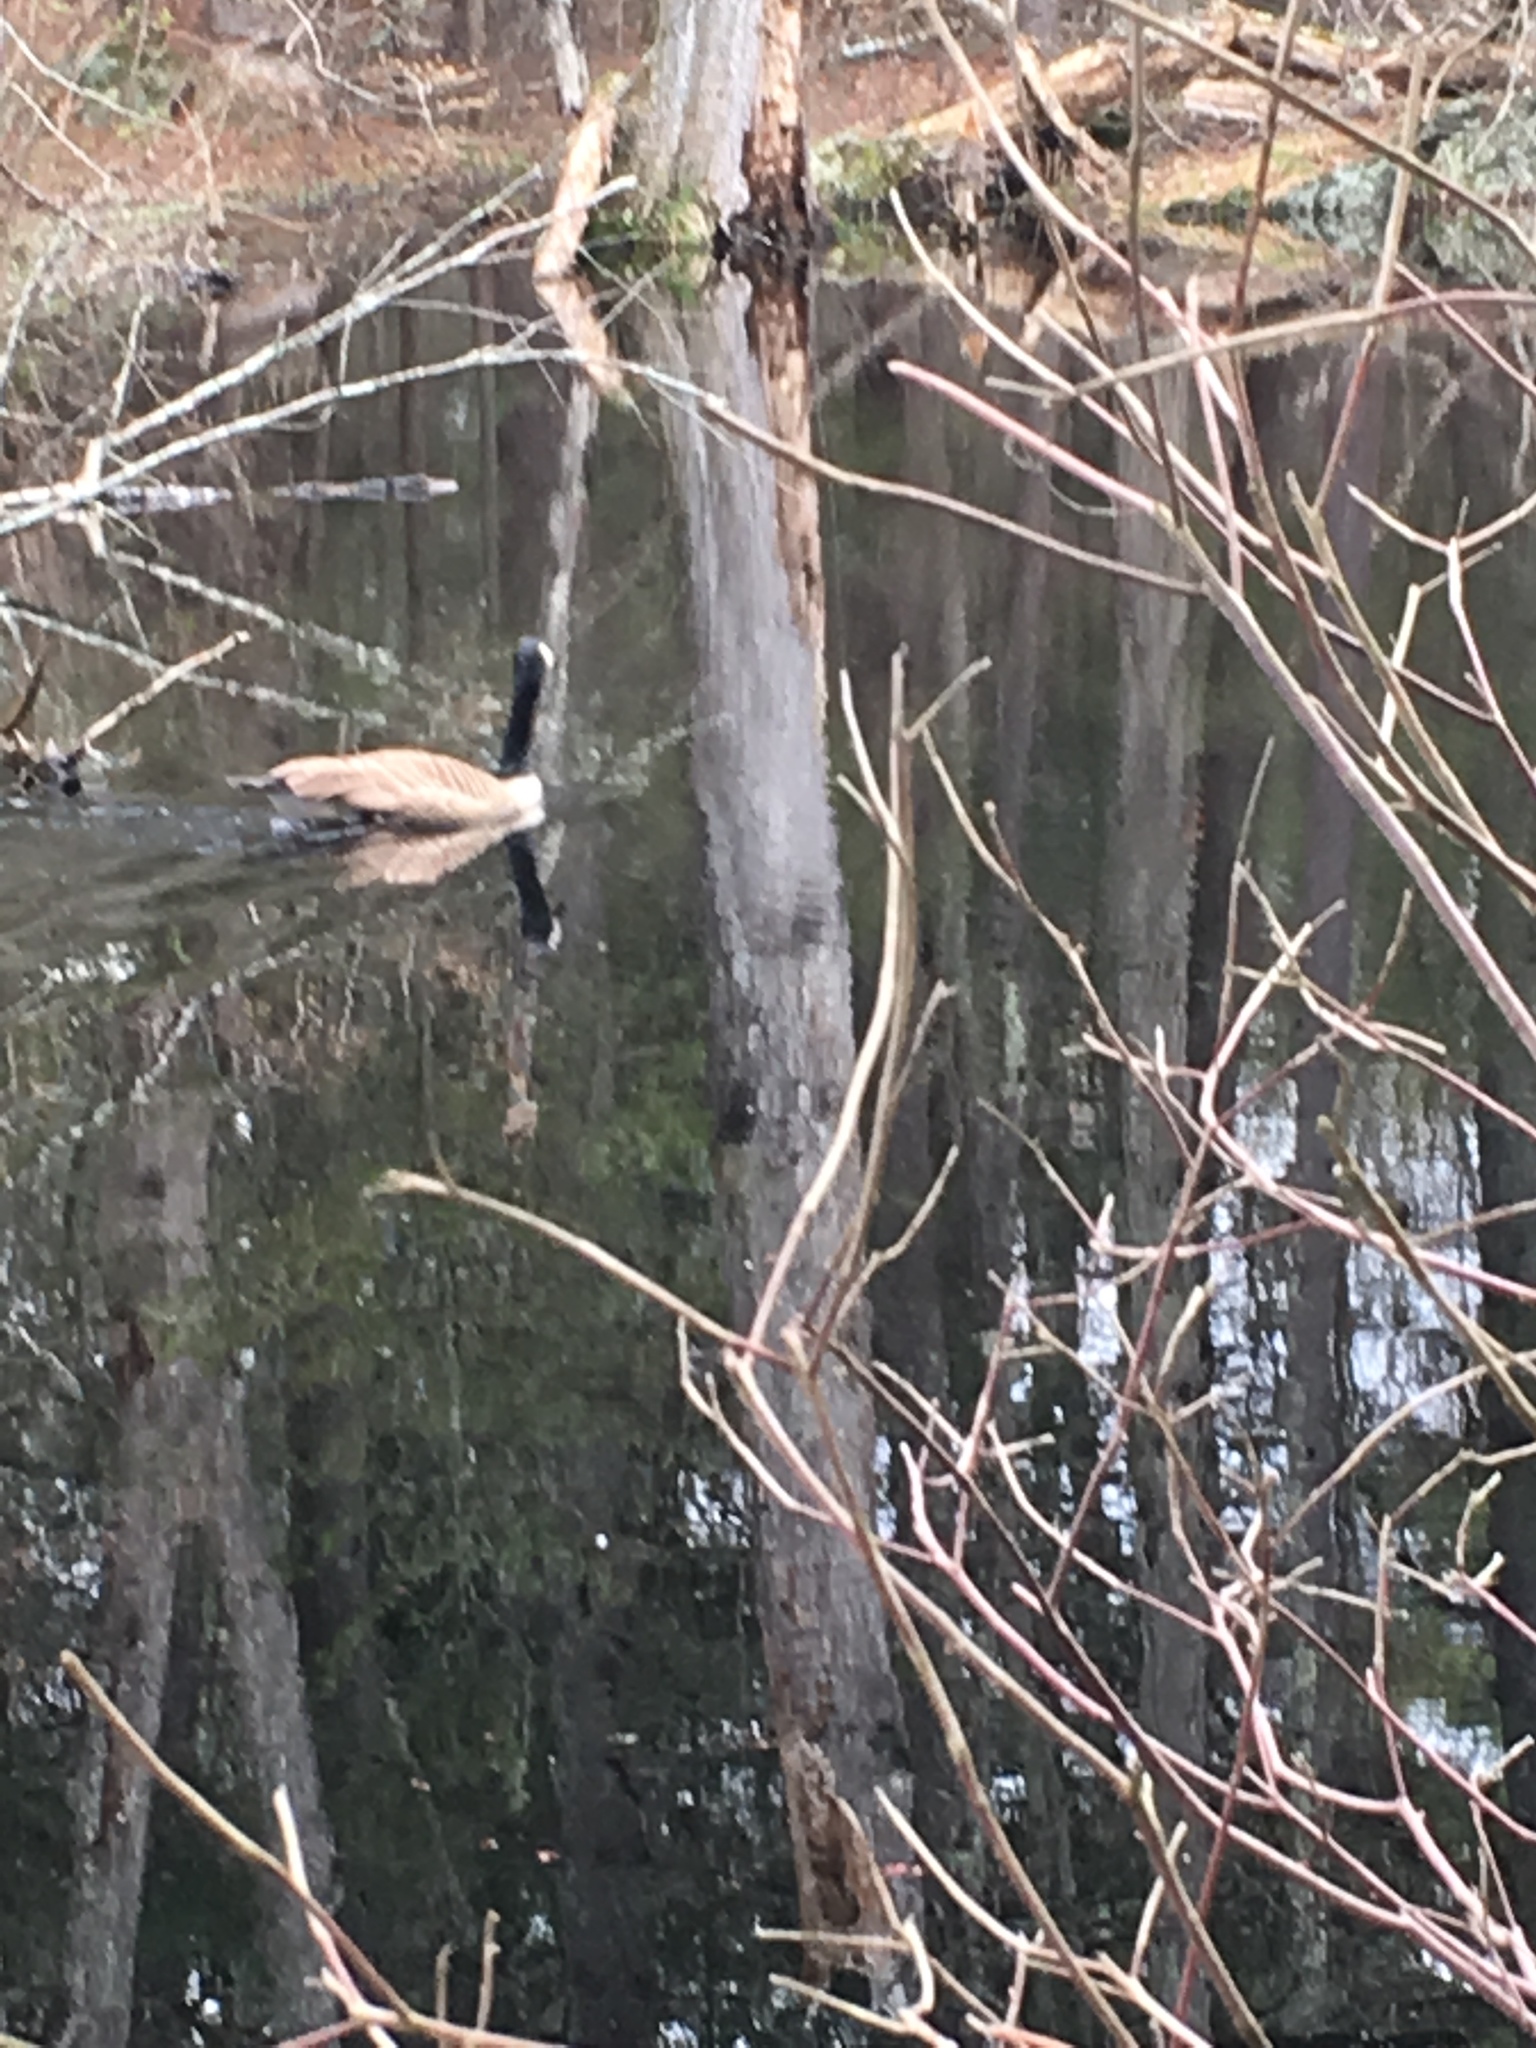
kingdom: Animalia
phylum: Chordata
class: Aves
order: Anseriformes
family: Anatidae
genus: Branta
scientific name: Branta canadensis
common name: Canada goose
